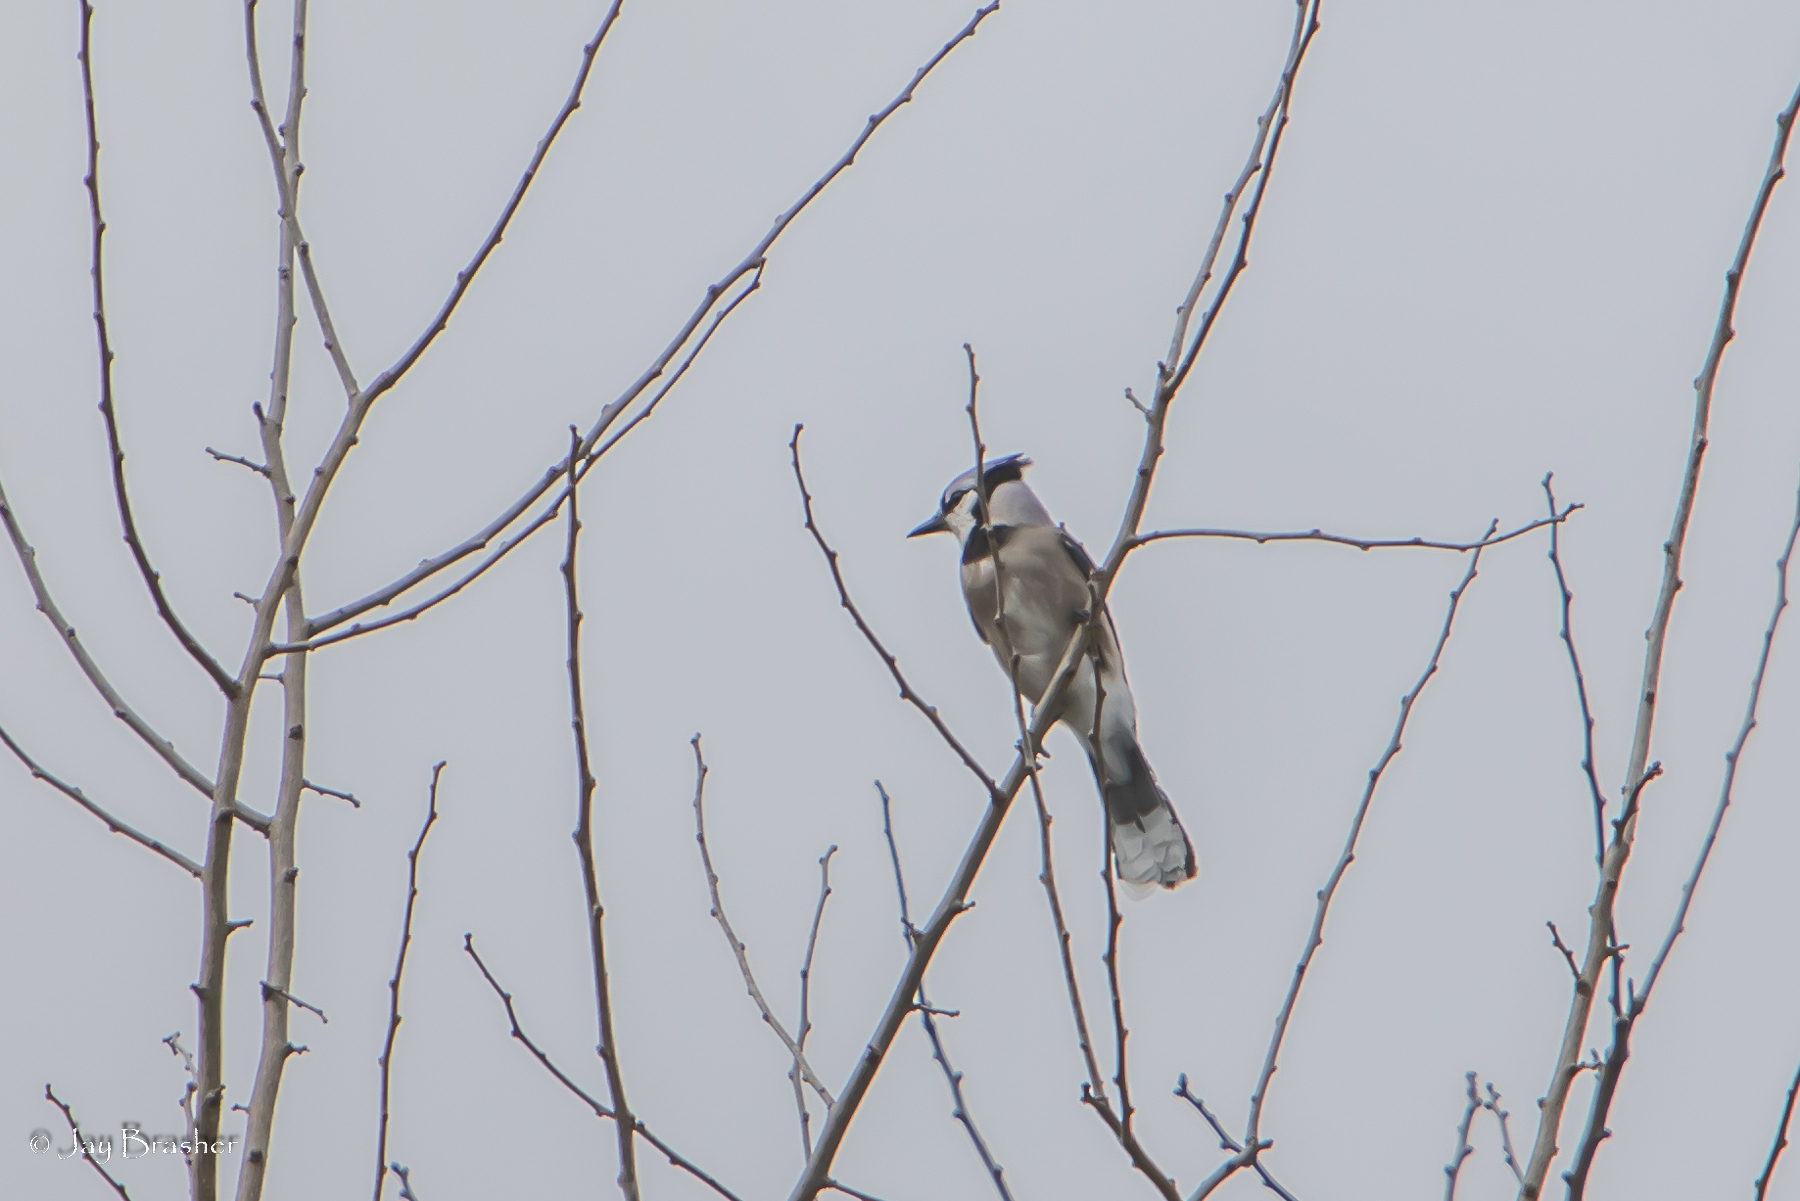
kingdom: Animalia
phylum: Chordata
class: Aves
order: Passeriformes
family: Corvidae
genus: Cyanocitta
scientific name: Cyanocitta cristata
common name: Blue jay
